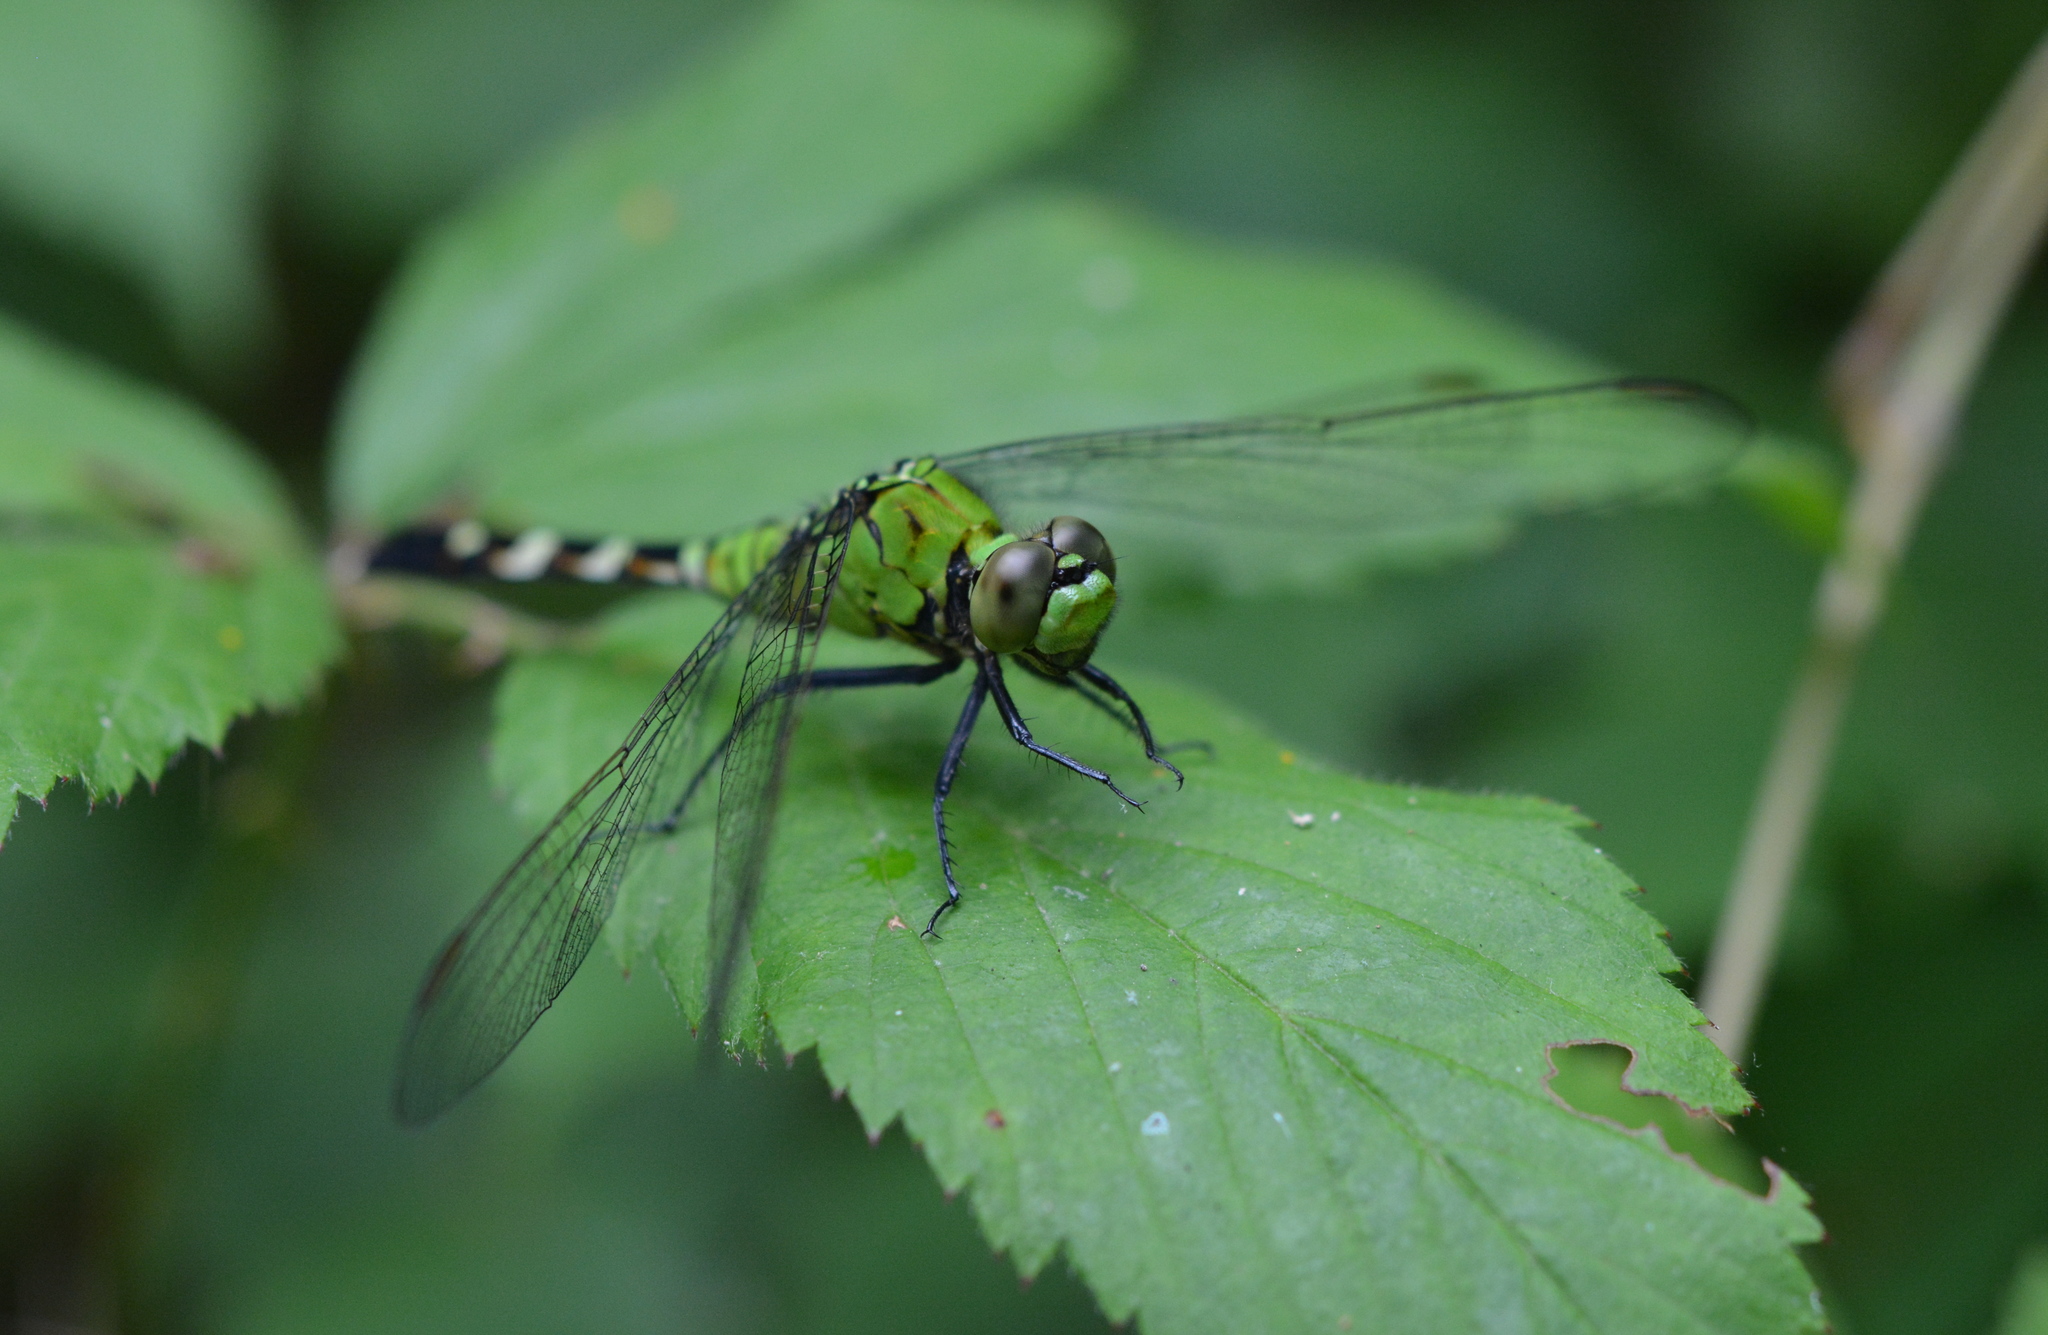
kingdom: Animalia
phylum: Arthropoda
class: Insecta
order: Odonata
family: Libellulidae
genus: Erythemis
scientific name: Erythemis simplicicollis
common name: Eastern pondhawk
